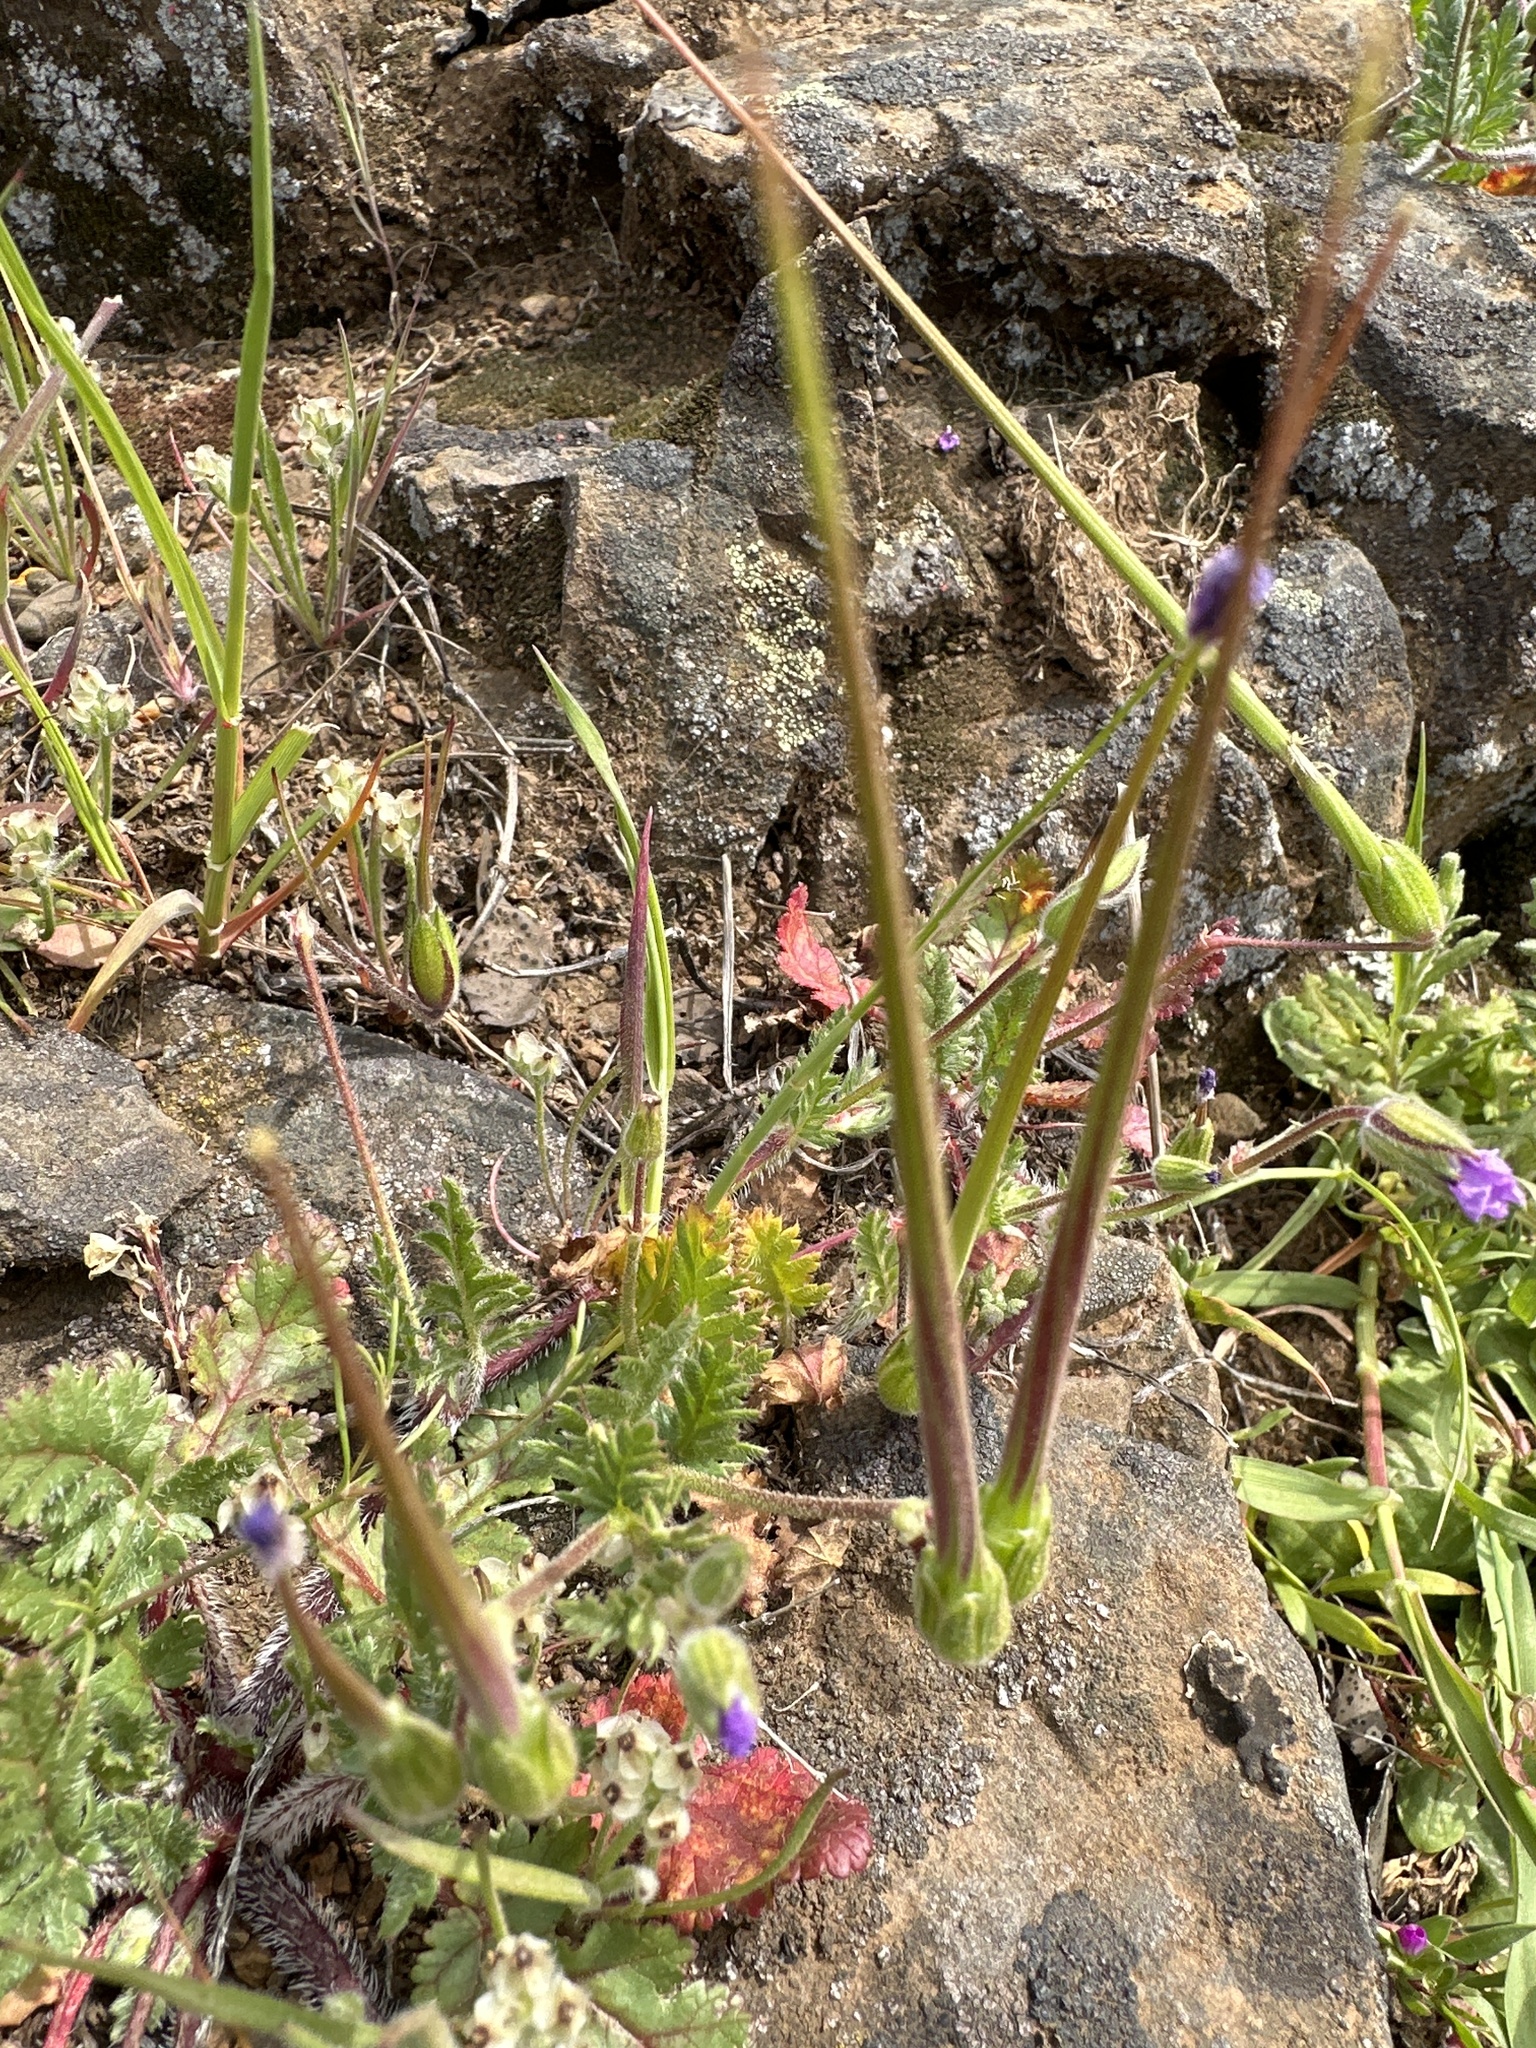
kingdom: Plantae
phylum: Tracheophyta
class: Magnoliopsida
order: Geraniales
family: Geraniaceae
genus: Erodium
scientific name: Erodium botrys
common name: Mediterranean stork's-bill
